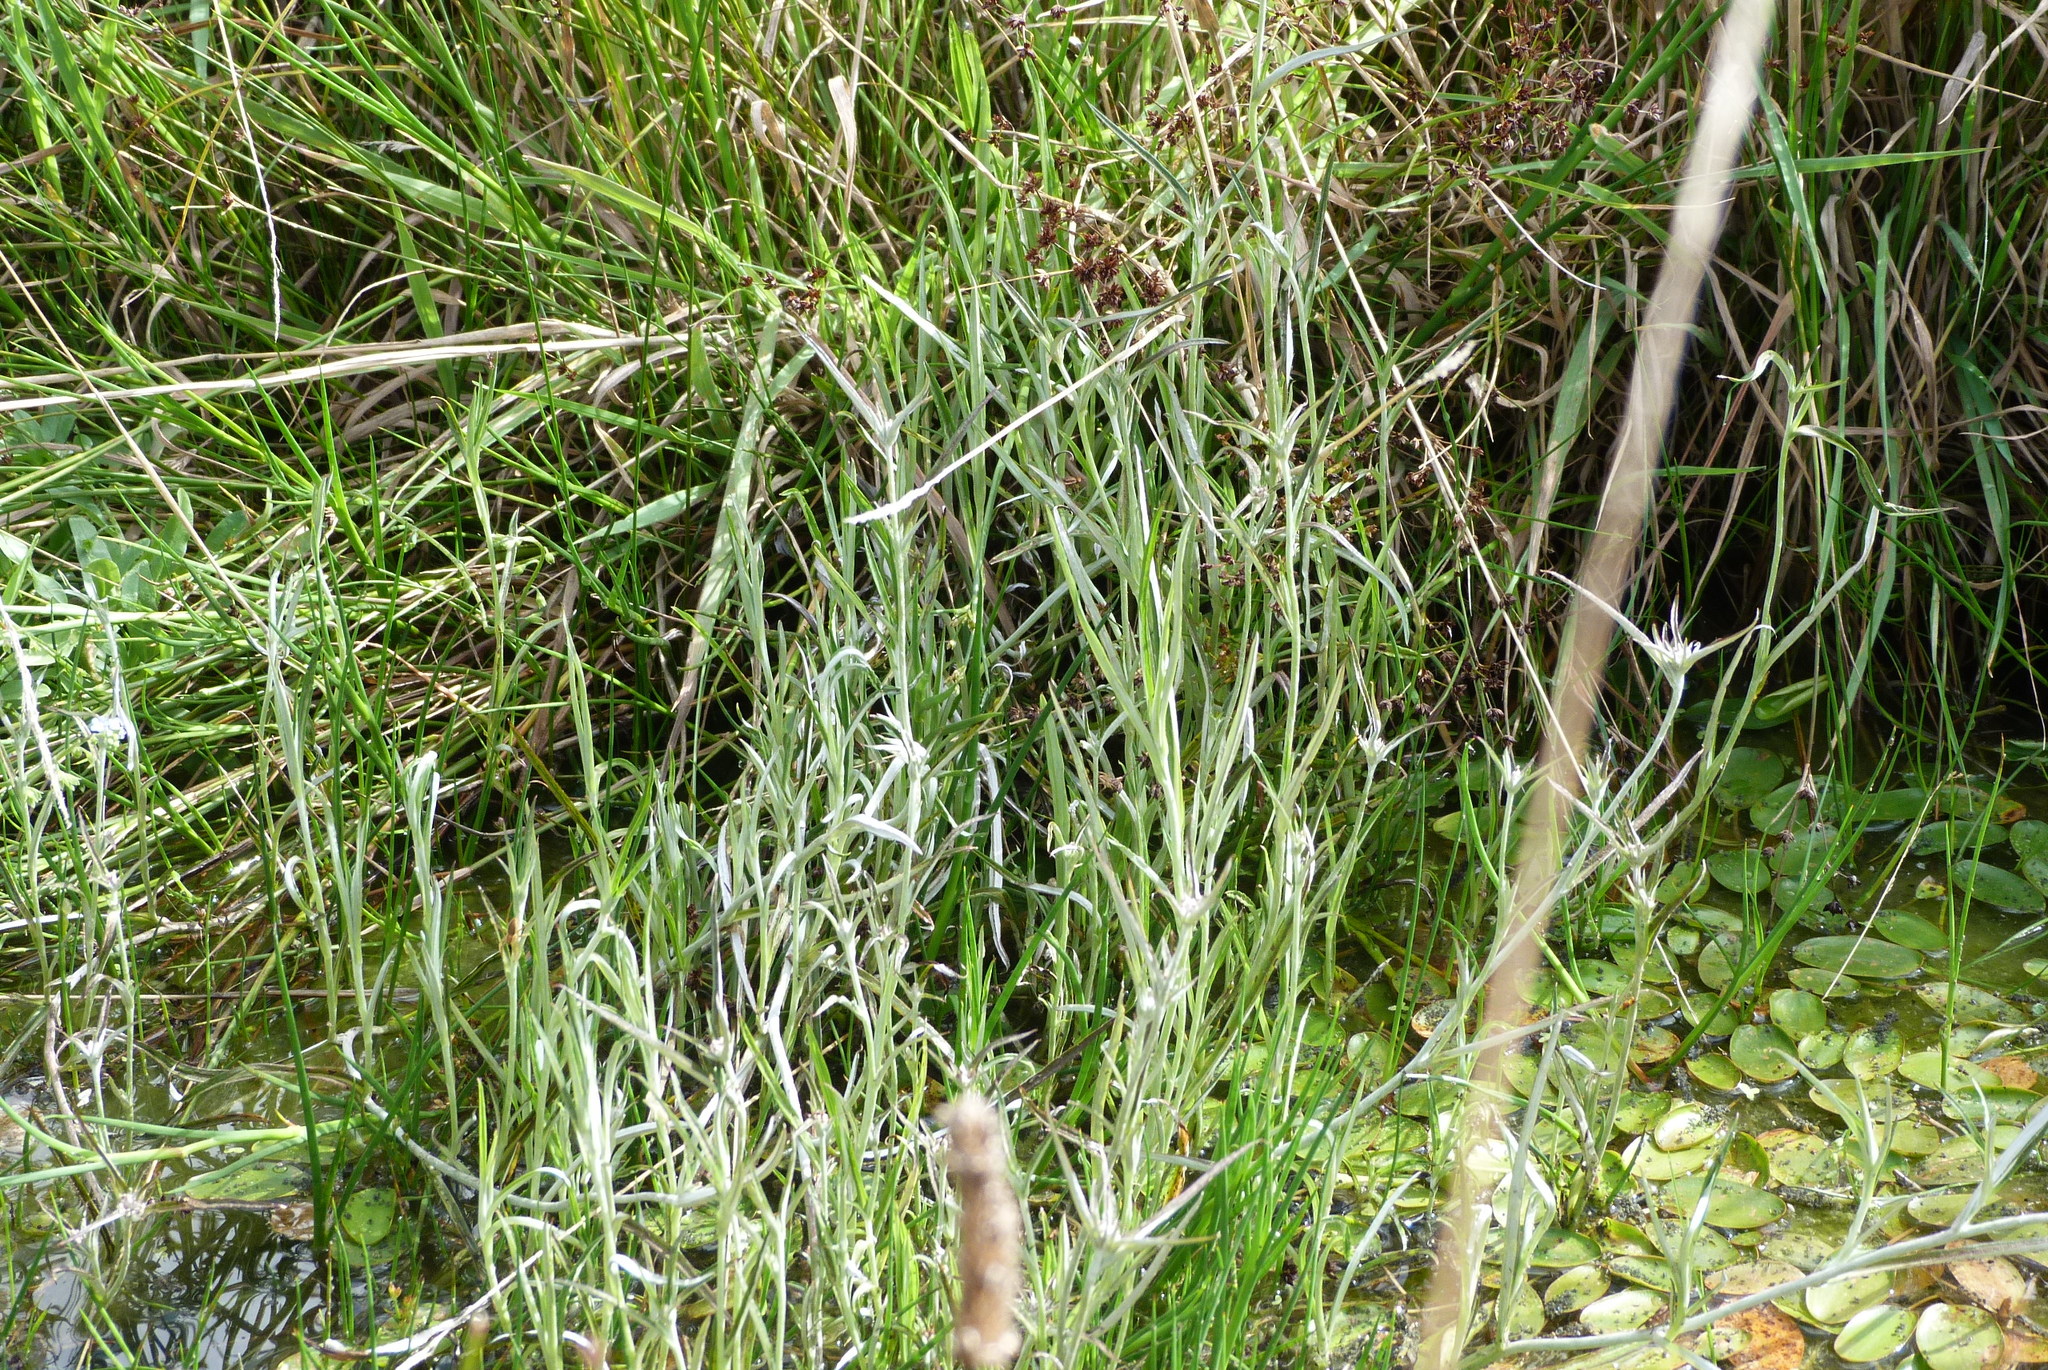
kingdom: Plantae
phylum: Tracheophyta
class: Magnoliopsida
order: Asterales
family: Asteraceae
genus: Euchiton
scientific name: Euchiton involucratus
